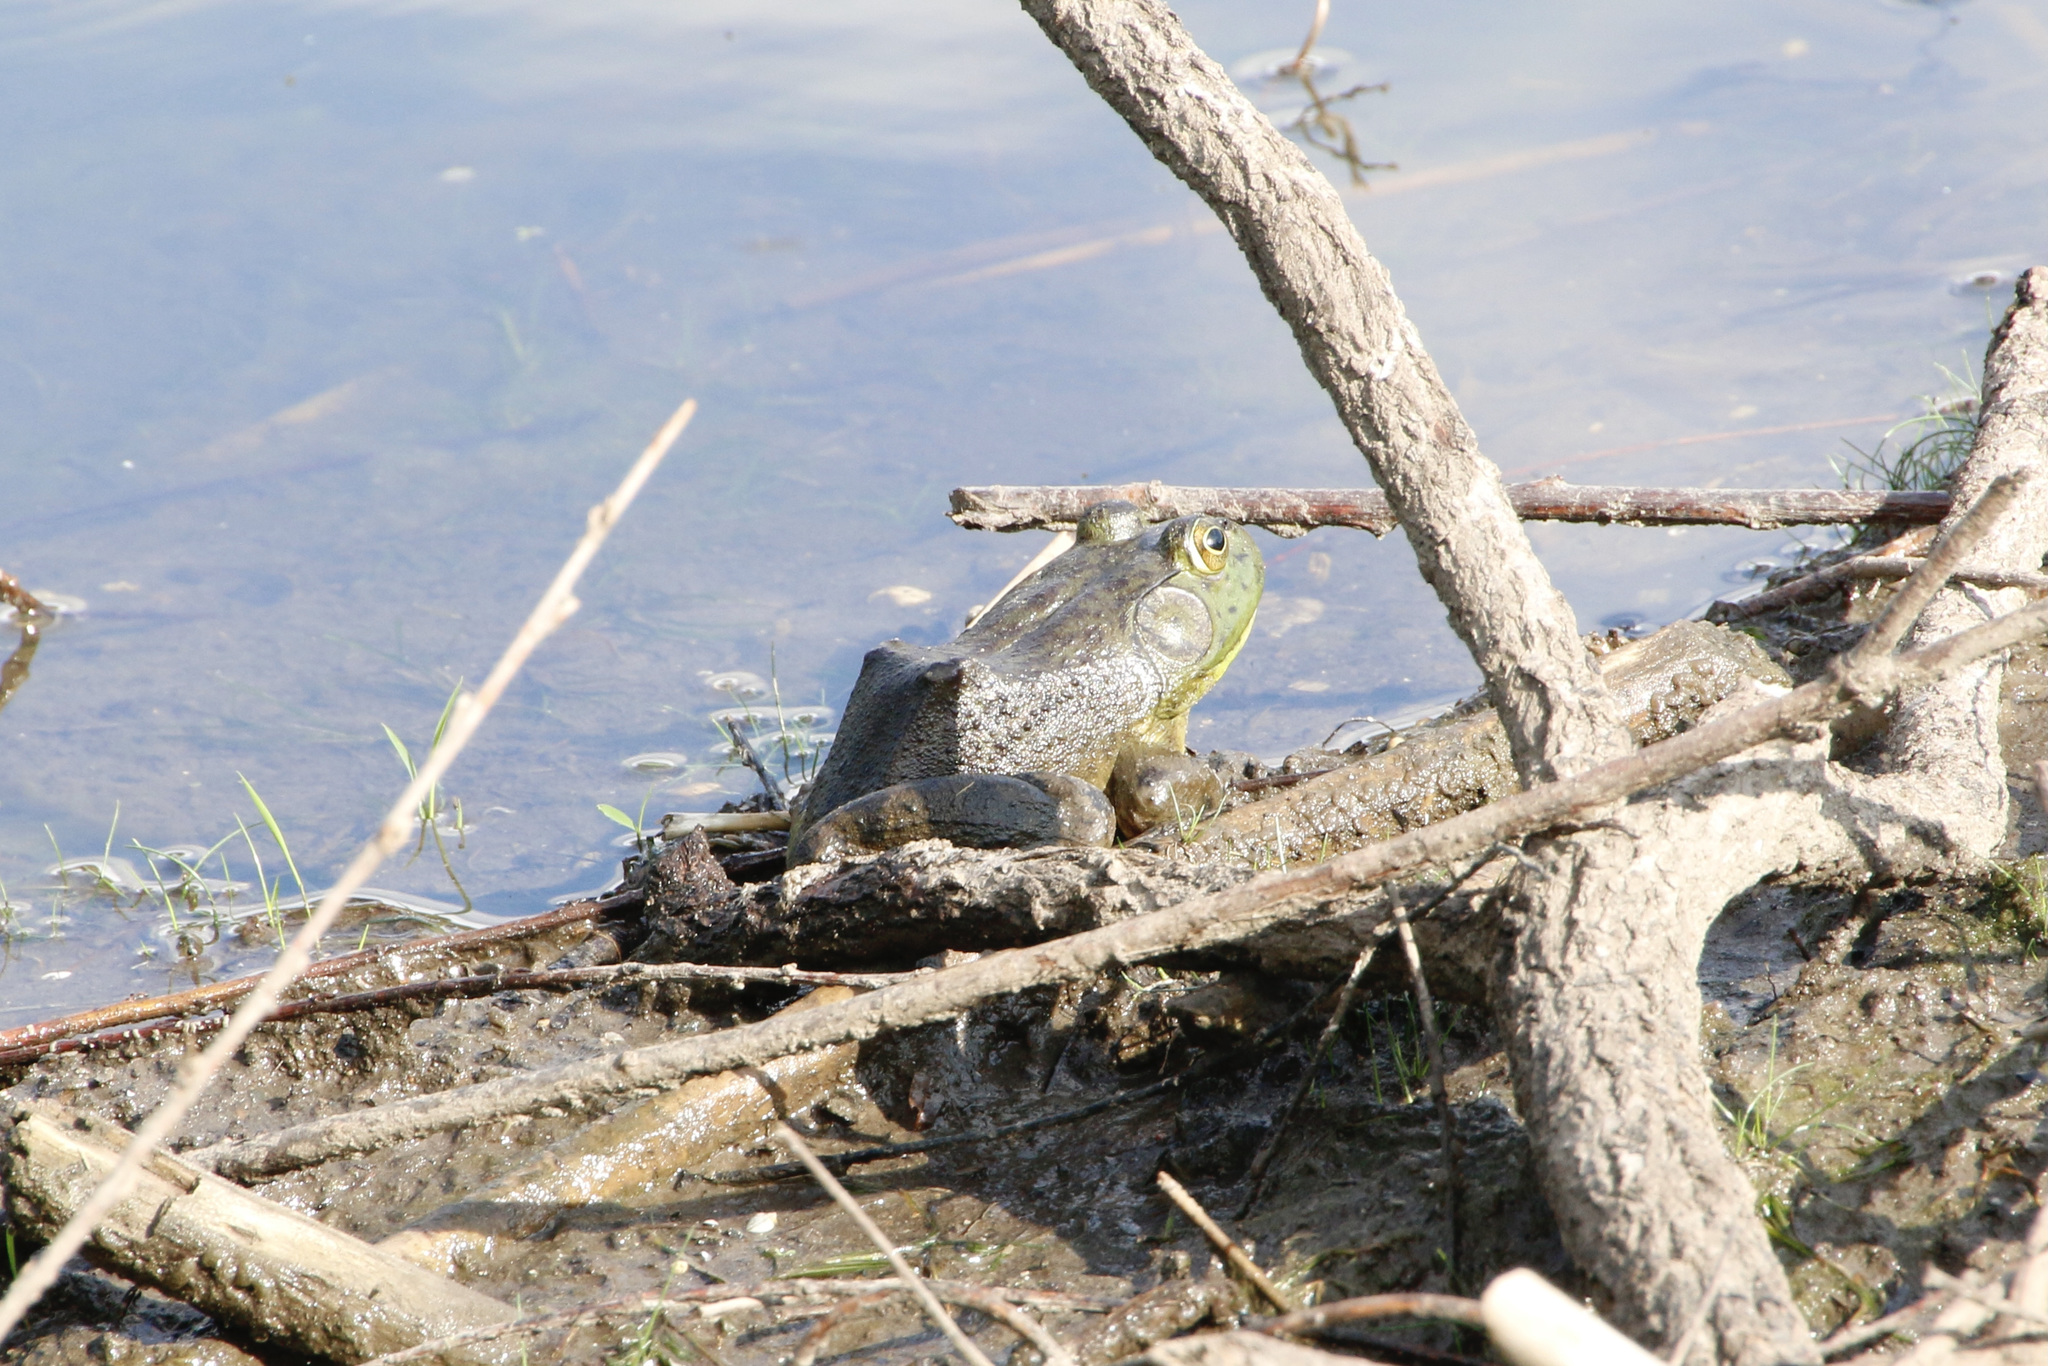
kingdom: Animalia
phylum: Chordata
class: Amphibia
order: Anura
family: Ranidae
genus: Lithobates
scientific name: Lithobates catesbeianus
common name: American bullfrog
